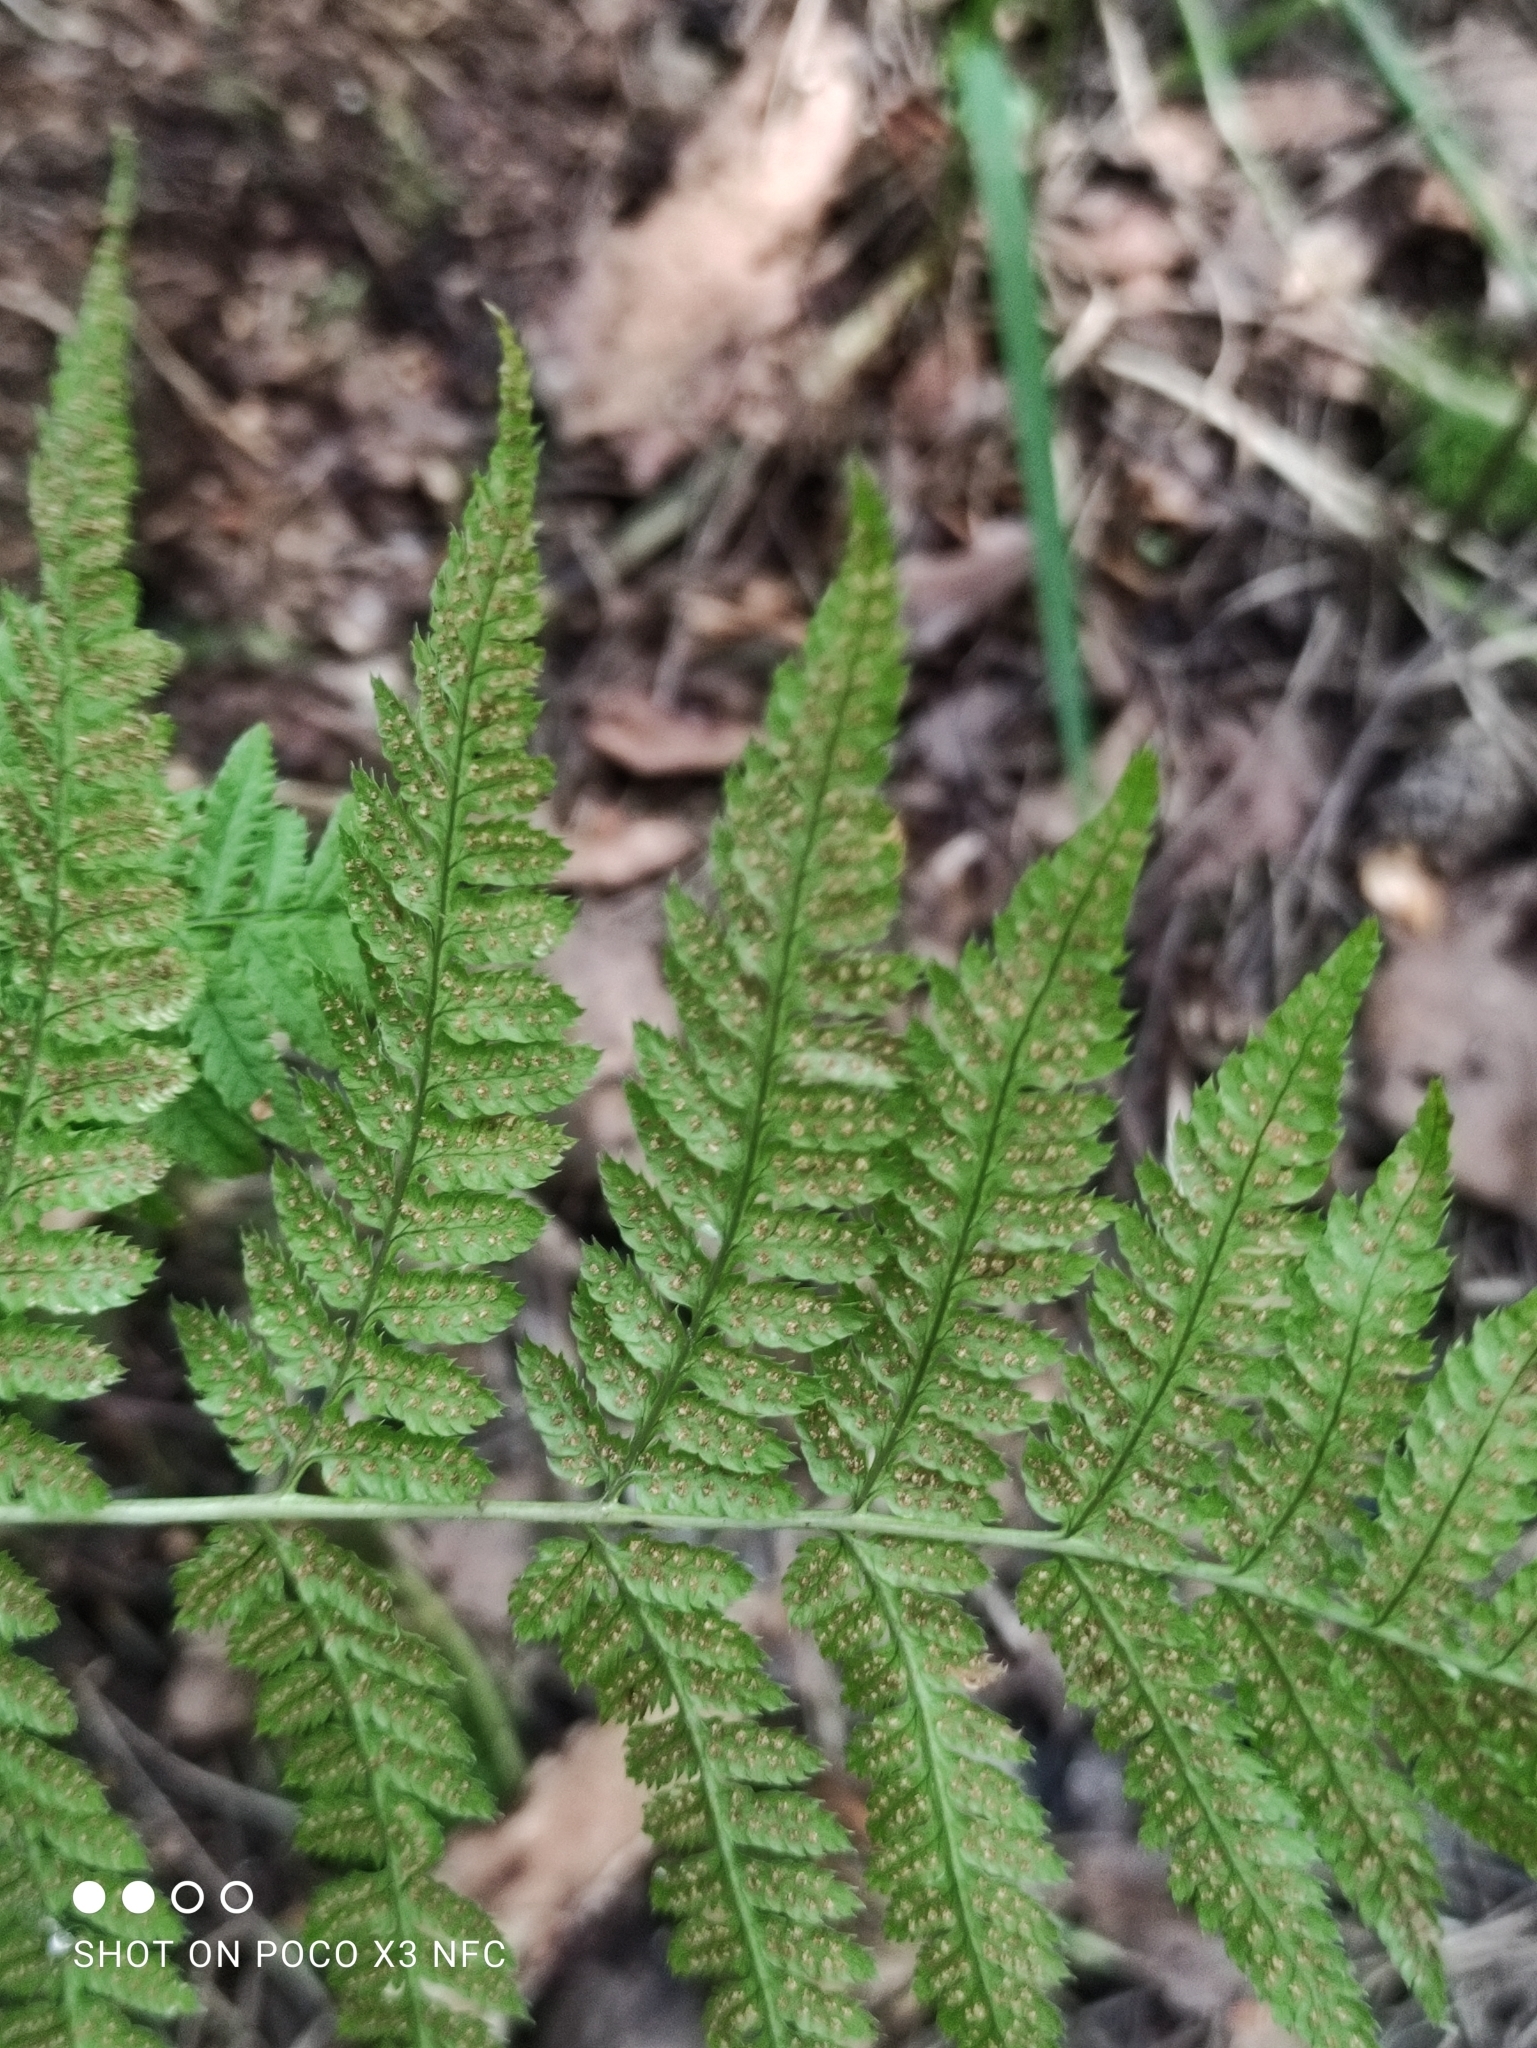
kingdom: Plantae
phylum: Tracheophyta
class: Polypodiopsida
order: Polypodiales
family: Dryopteridaceae
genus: Dryopteris
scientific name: Dryopteris carthusiana
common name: Narrow buckler-fern
